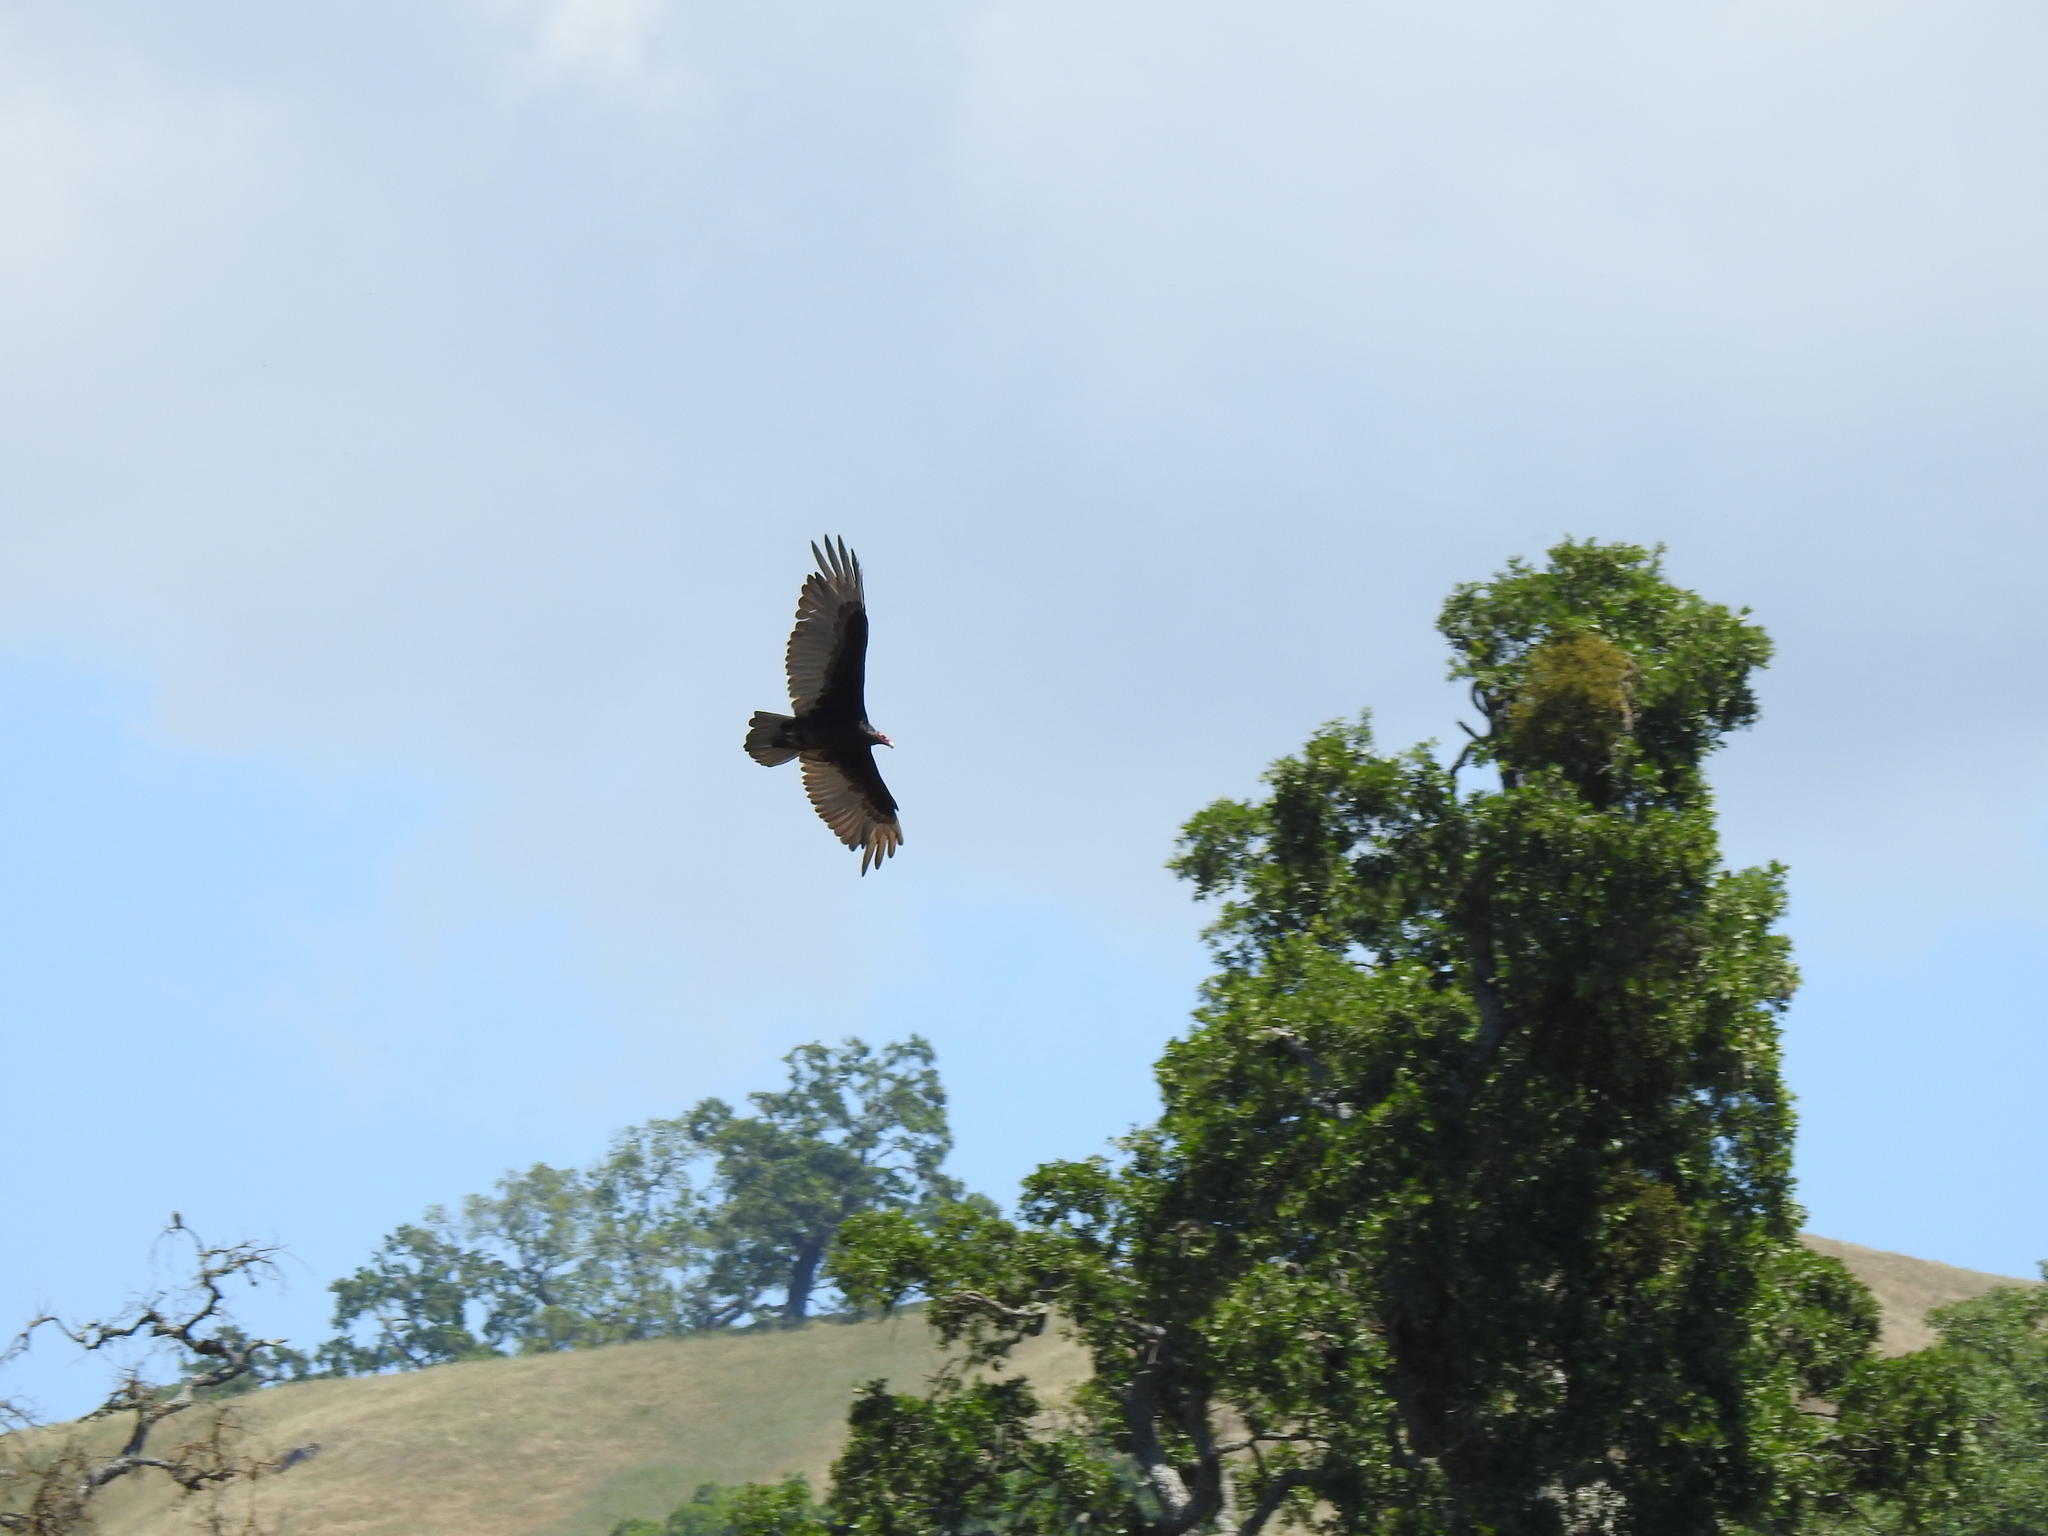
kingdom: Animalia
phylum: Chordata
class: Aves
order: Accipitriformes
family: Cathartidae
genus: Cathartes
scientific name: Cathartes aura
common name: Turkey vulture
